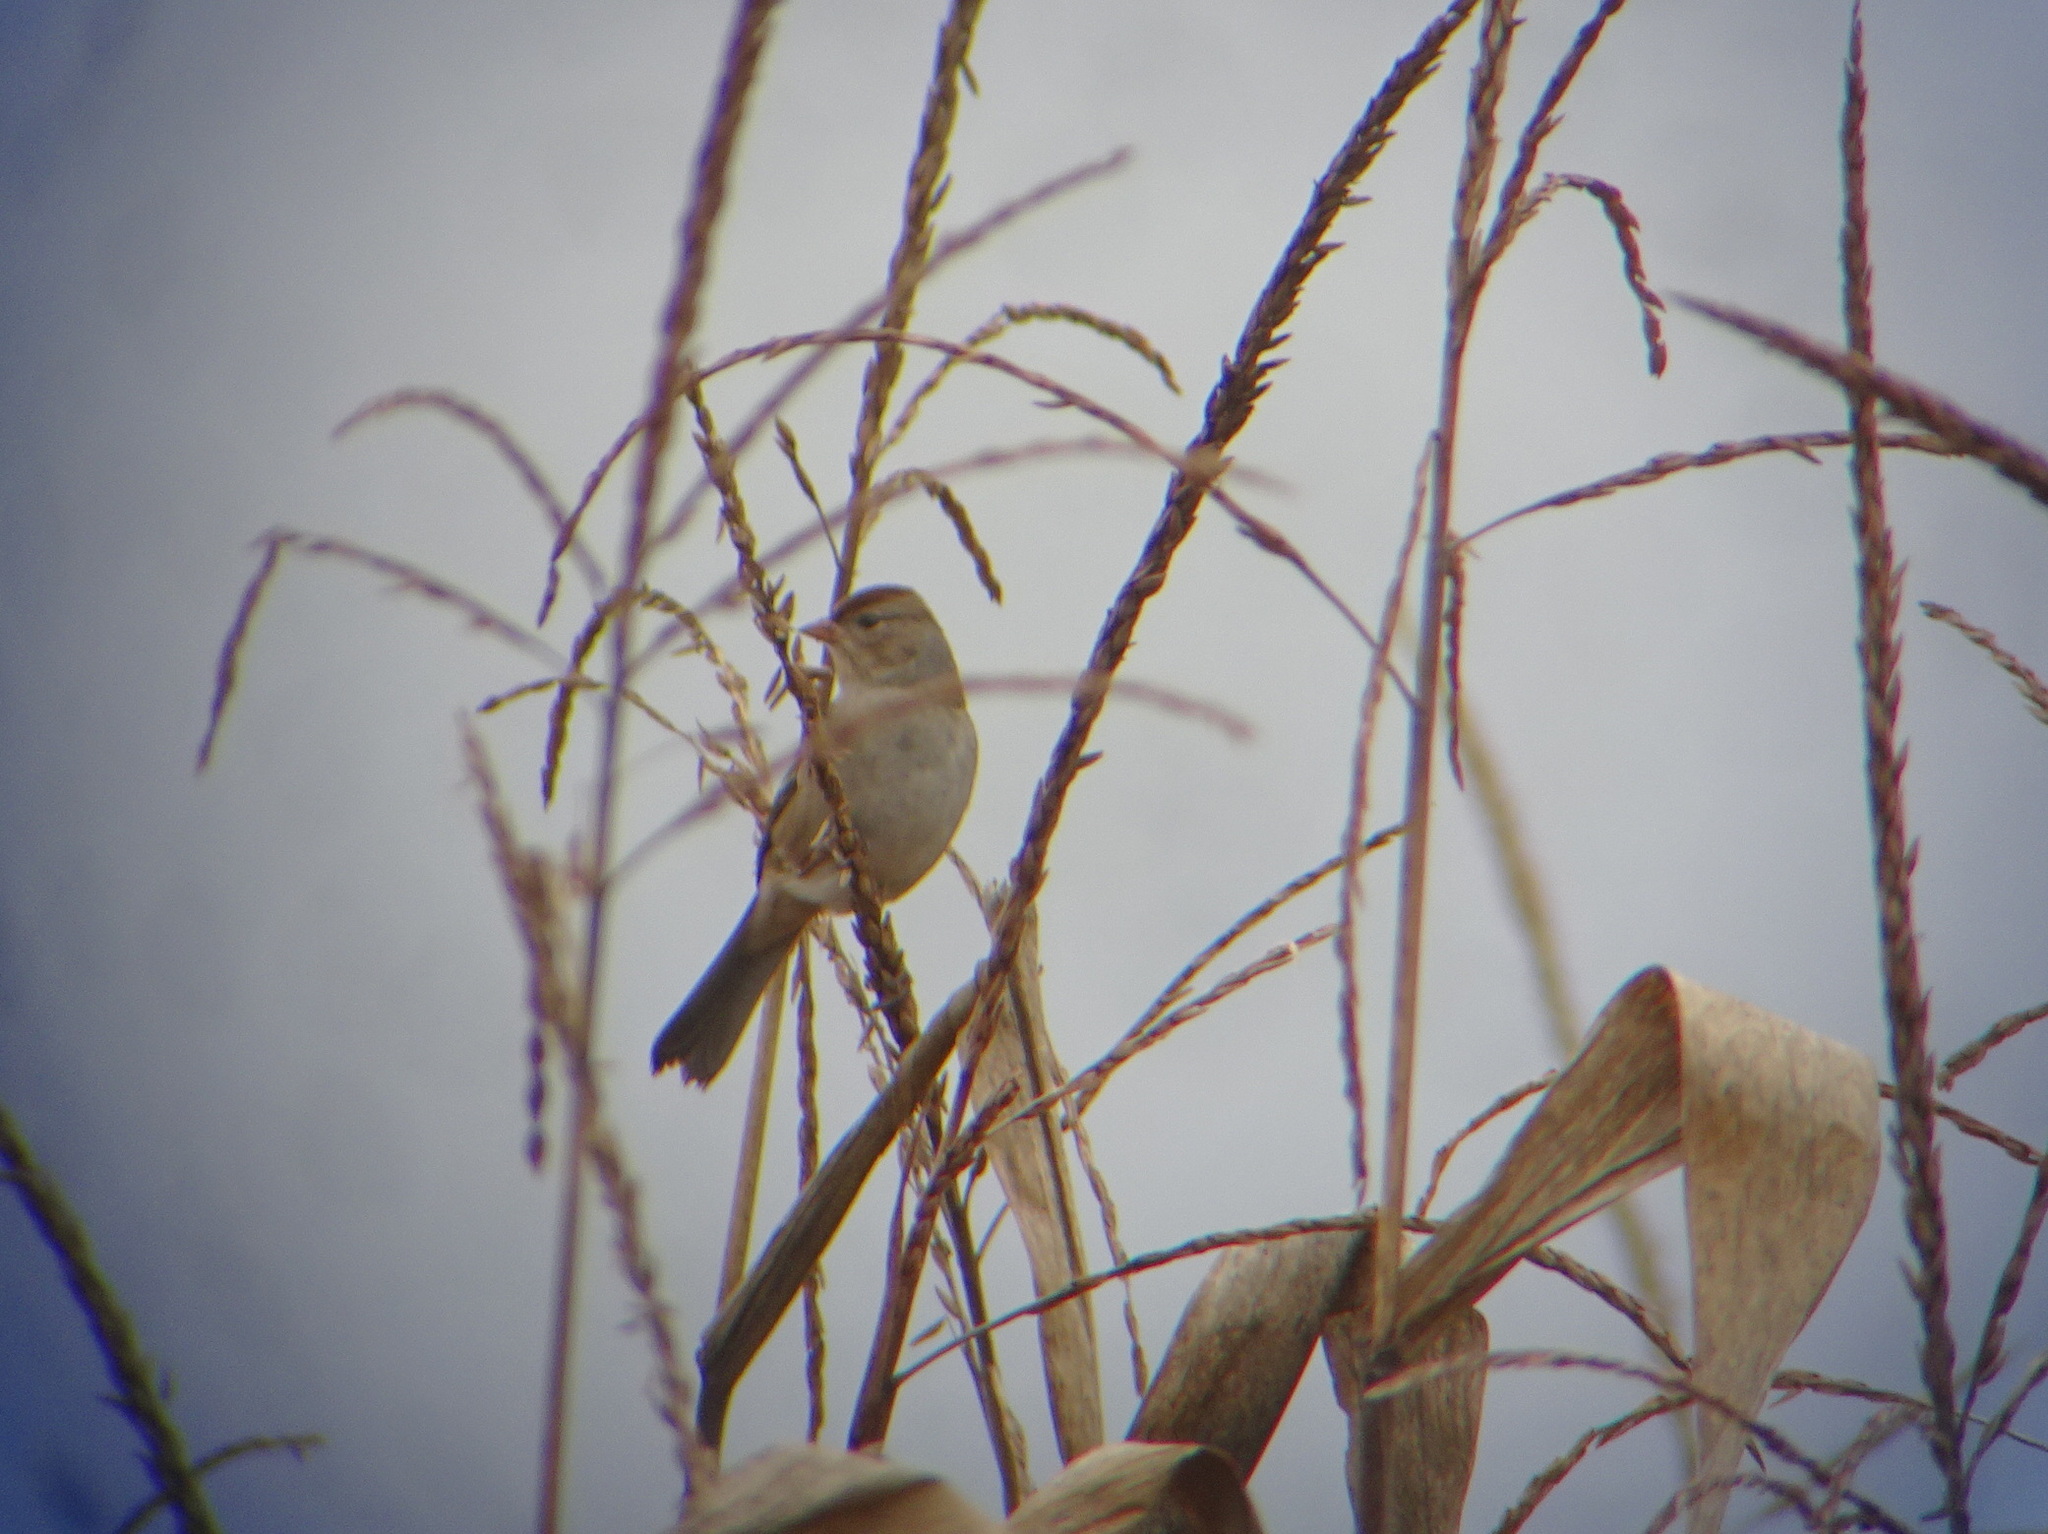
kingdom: Animalia
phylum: Chordata
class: Aves
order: Passeriformes
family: Passerellidae
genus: Zonotrichia
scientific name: Zonotrichia leucophrys
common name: White-crowned sparrow
